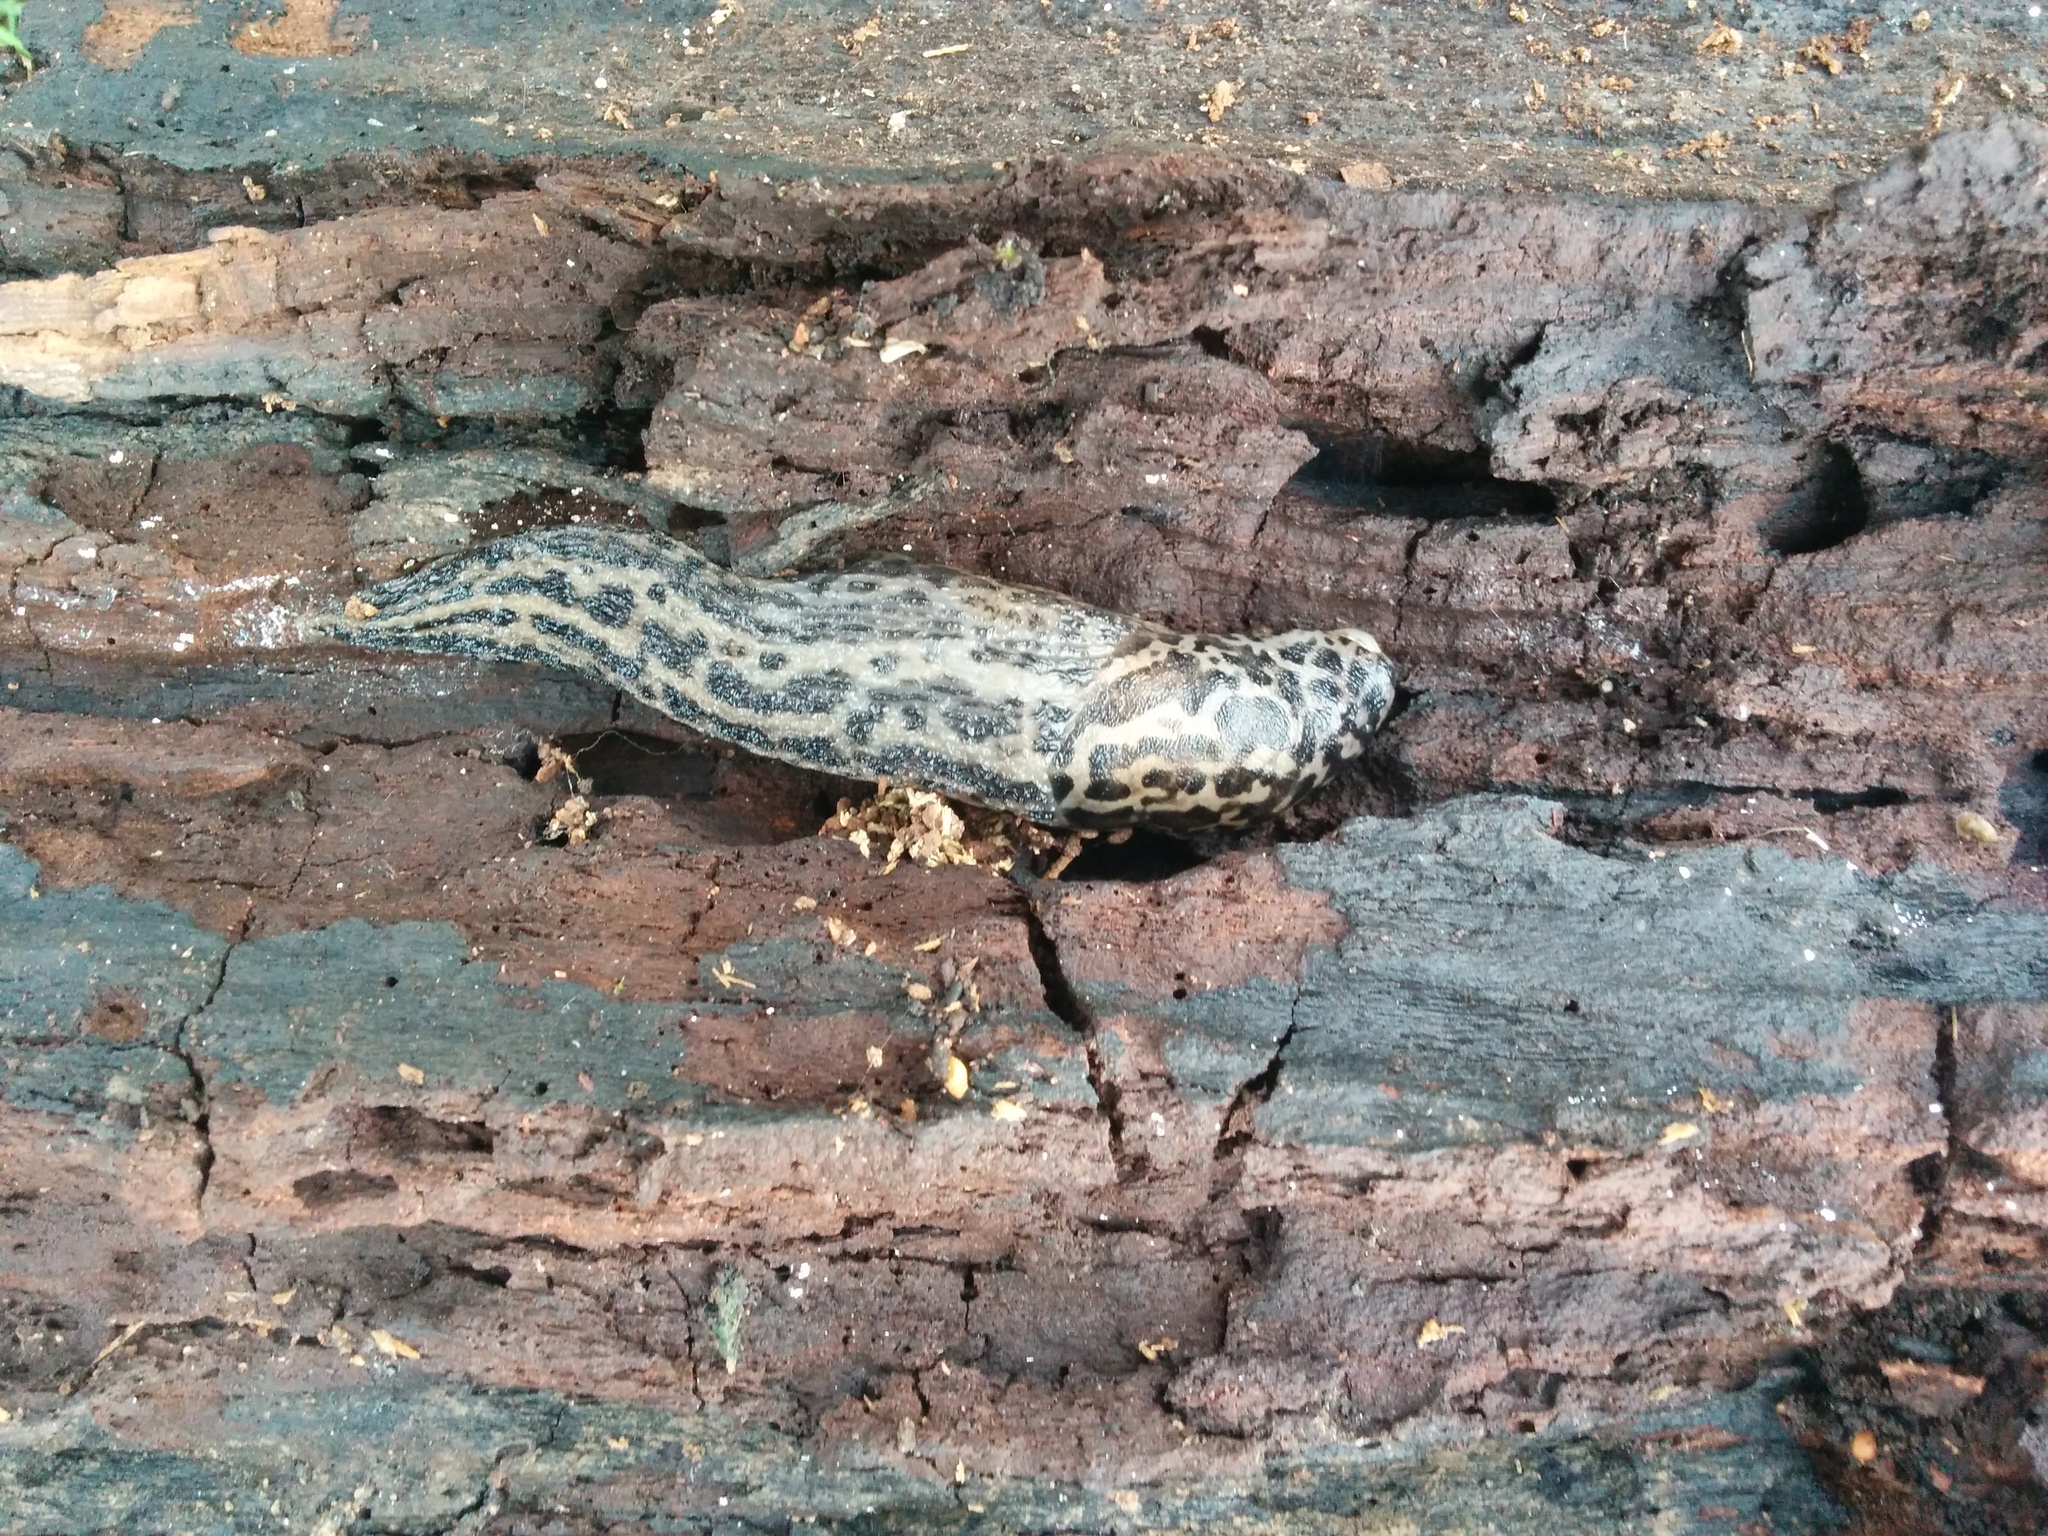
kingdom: Animalia
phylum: Mollusca
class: Gastropoda
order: Stylommatophora
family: Limacidae
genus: Limax
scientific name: Limax maximus
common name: Great grey slug
